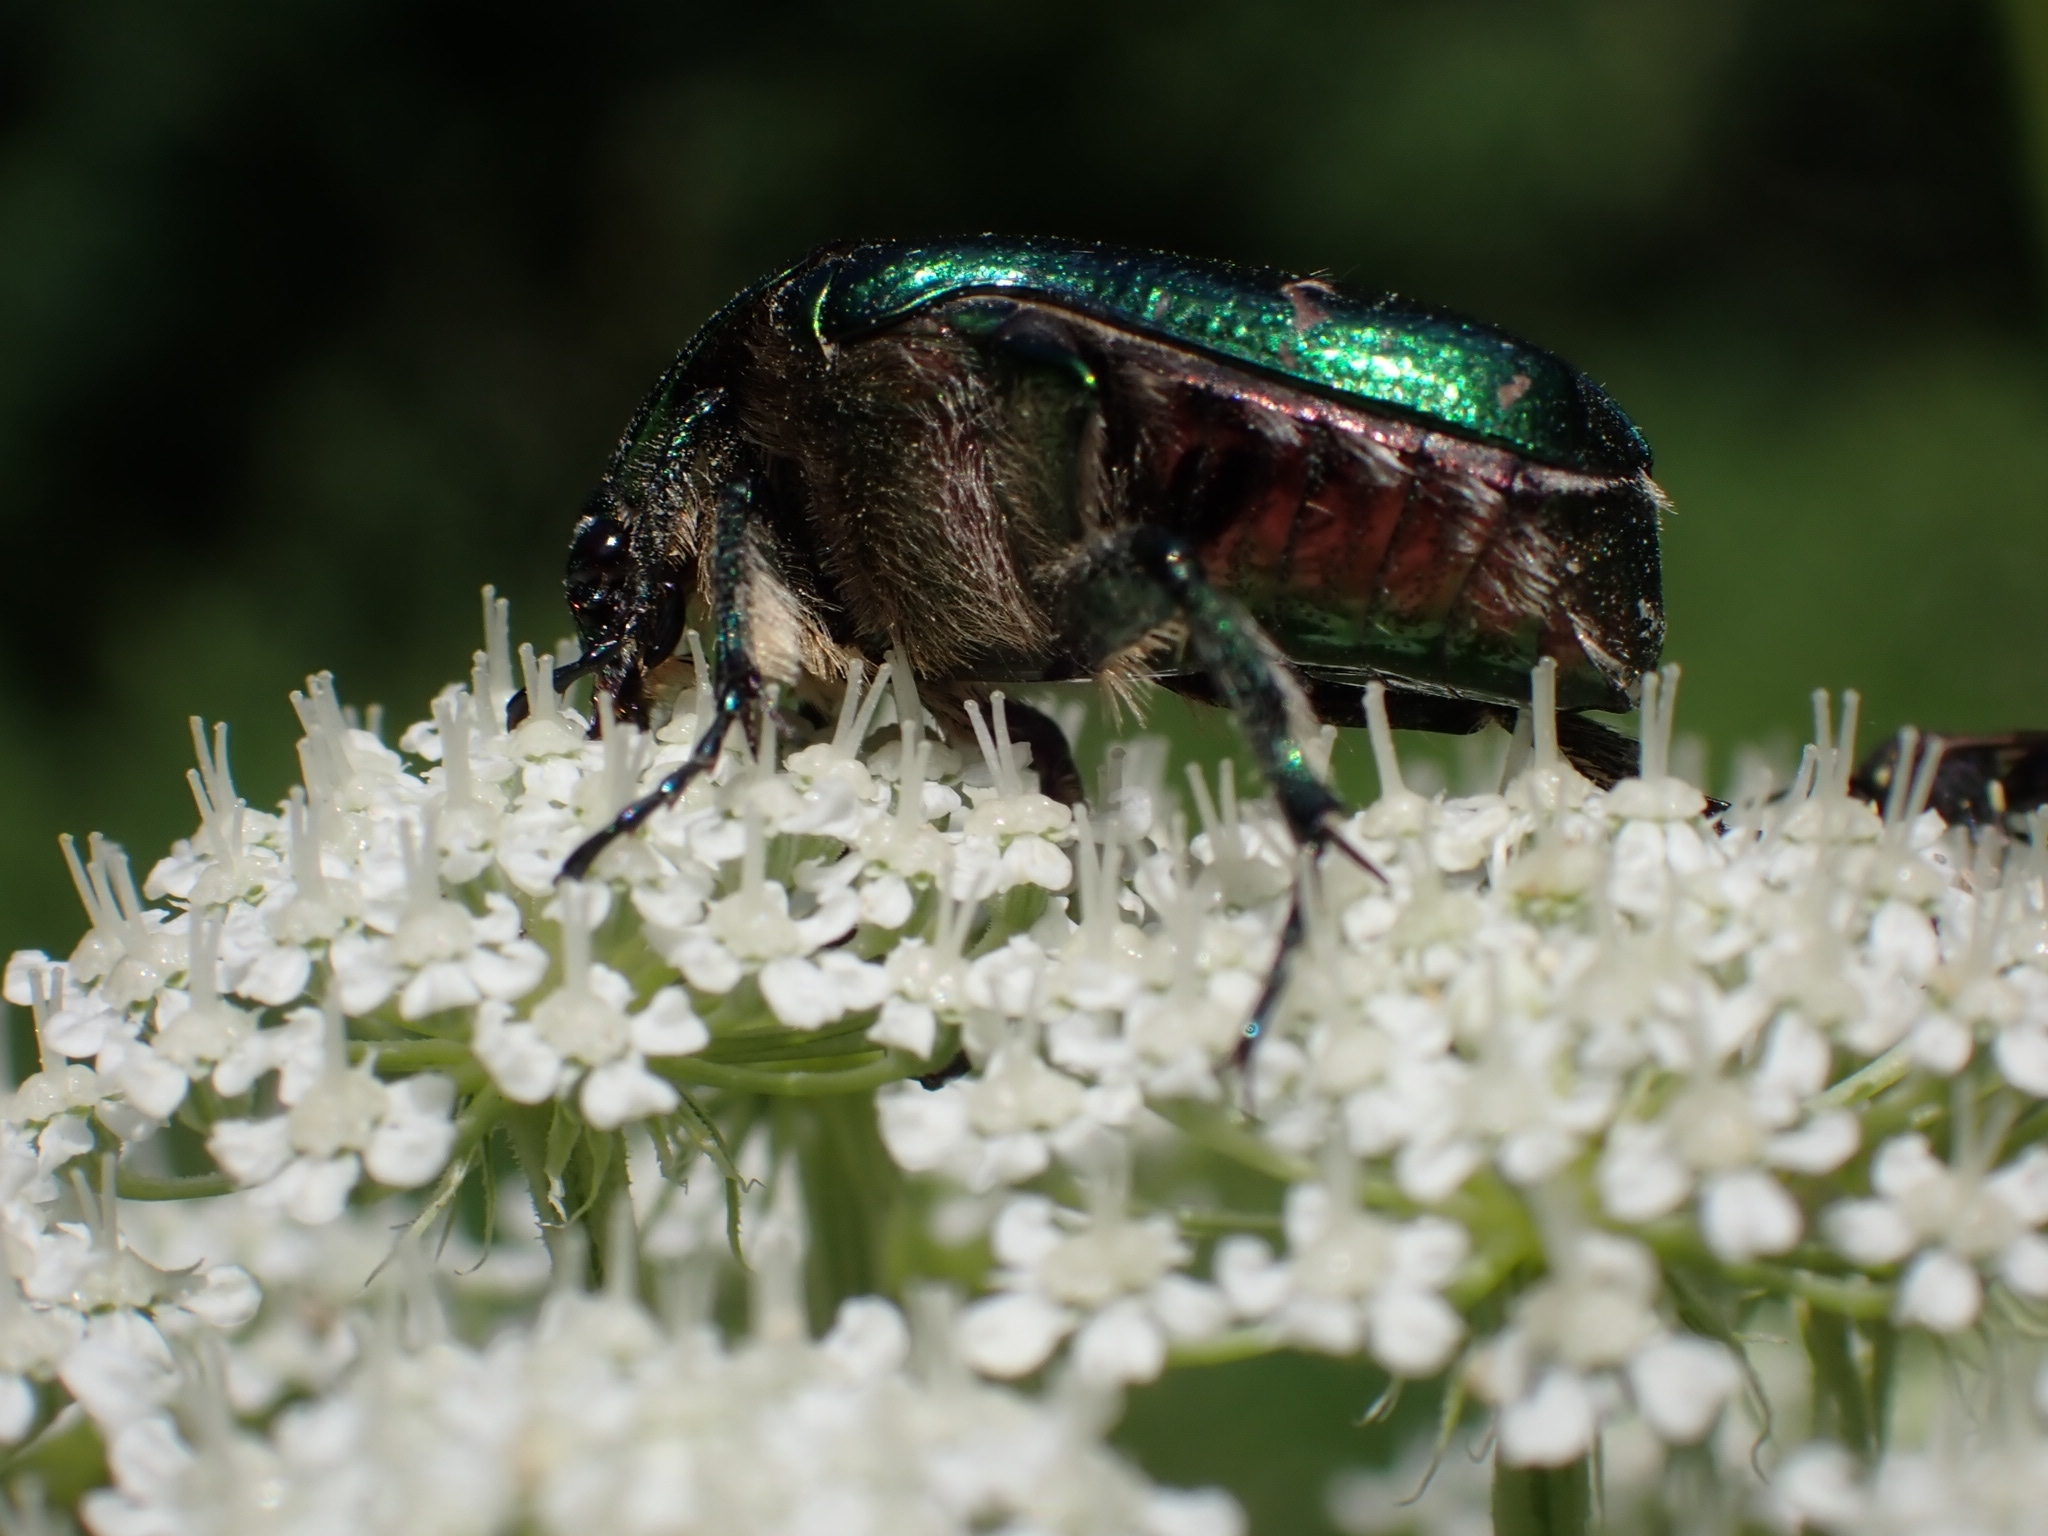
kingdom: Animalia
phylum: Arthropoda
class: Insecta
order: Coleoptera
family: Scarabaeidae
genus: Cetonia
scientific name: Cetonia aurata
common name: Rose chafer
